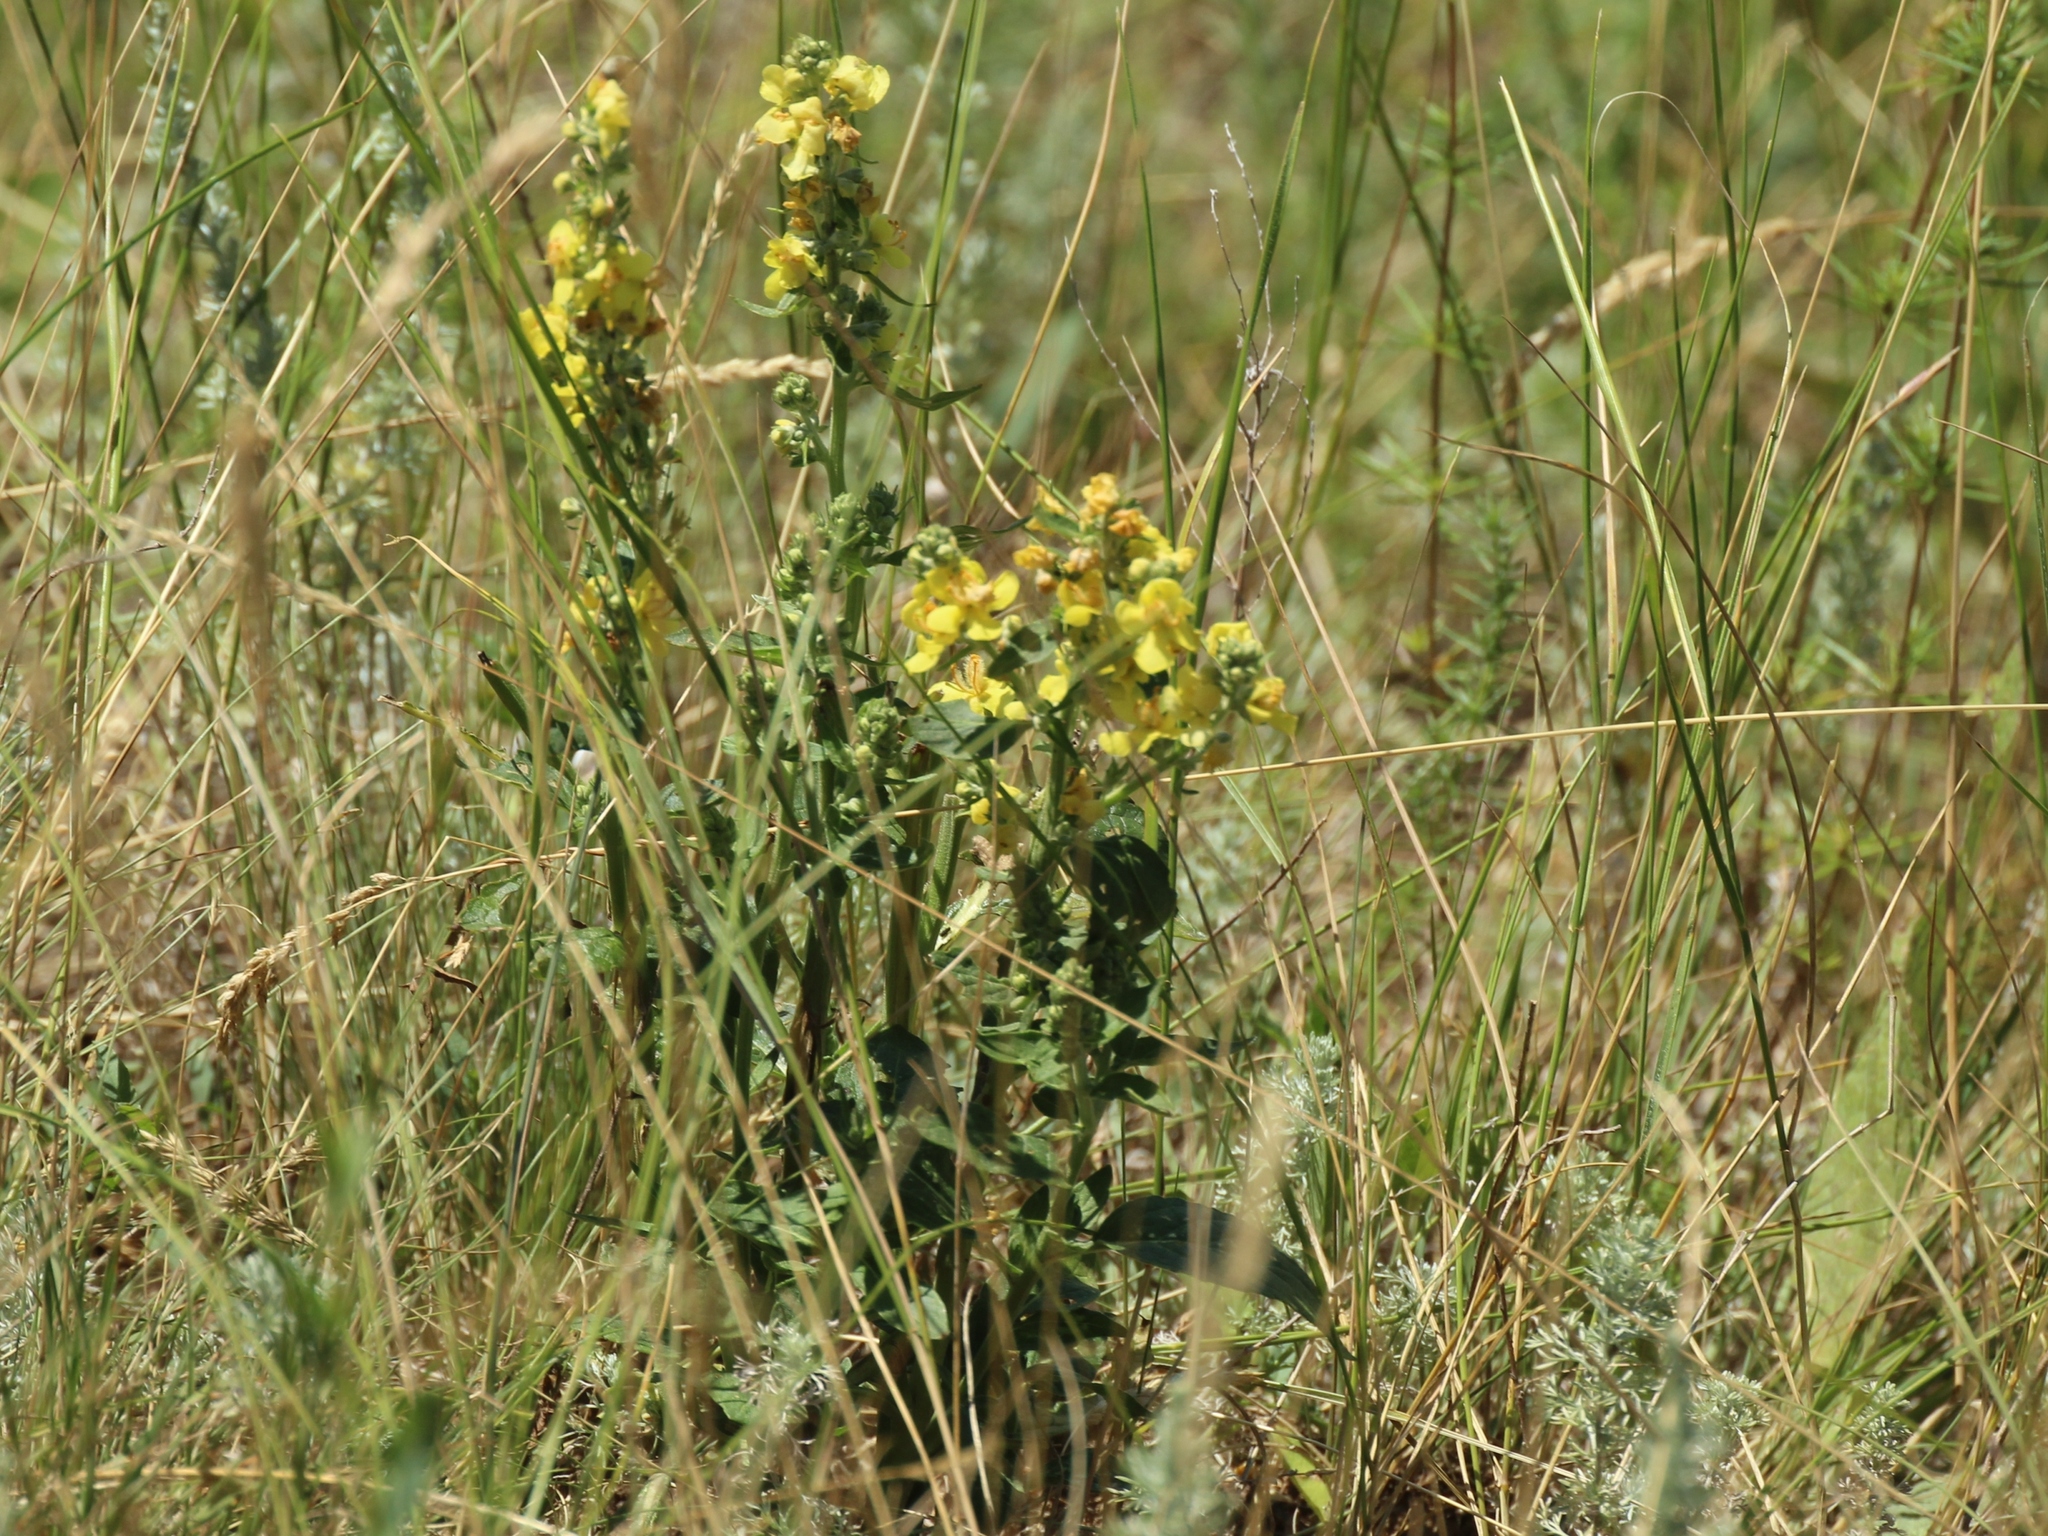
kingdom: Plantae
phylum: Tracheophyta
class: Magnoliopsida
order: Lamiales
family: Scrophulariaceae
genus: Verbascum
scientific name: Verbascum lychnitis
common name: White mullein
